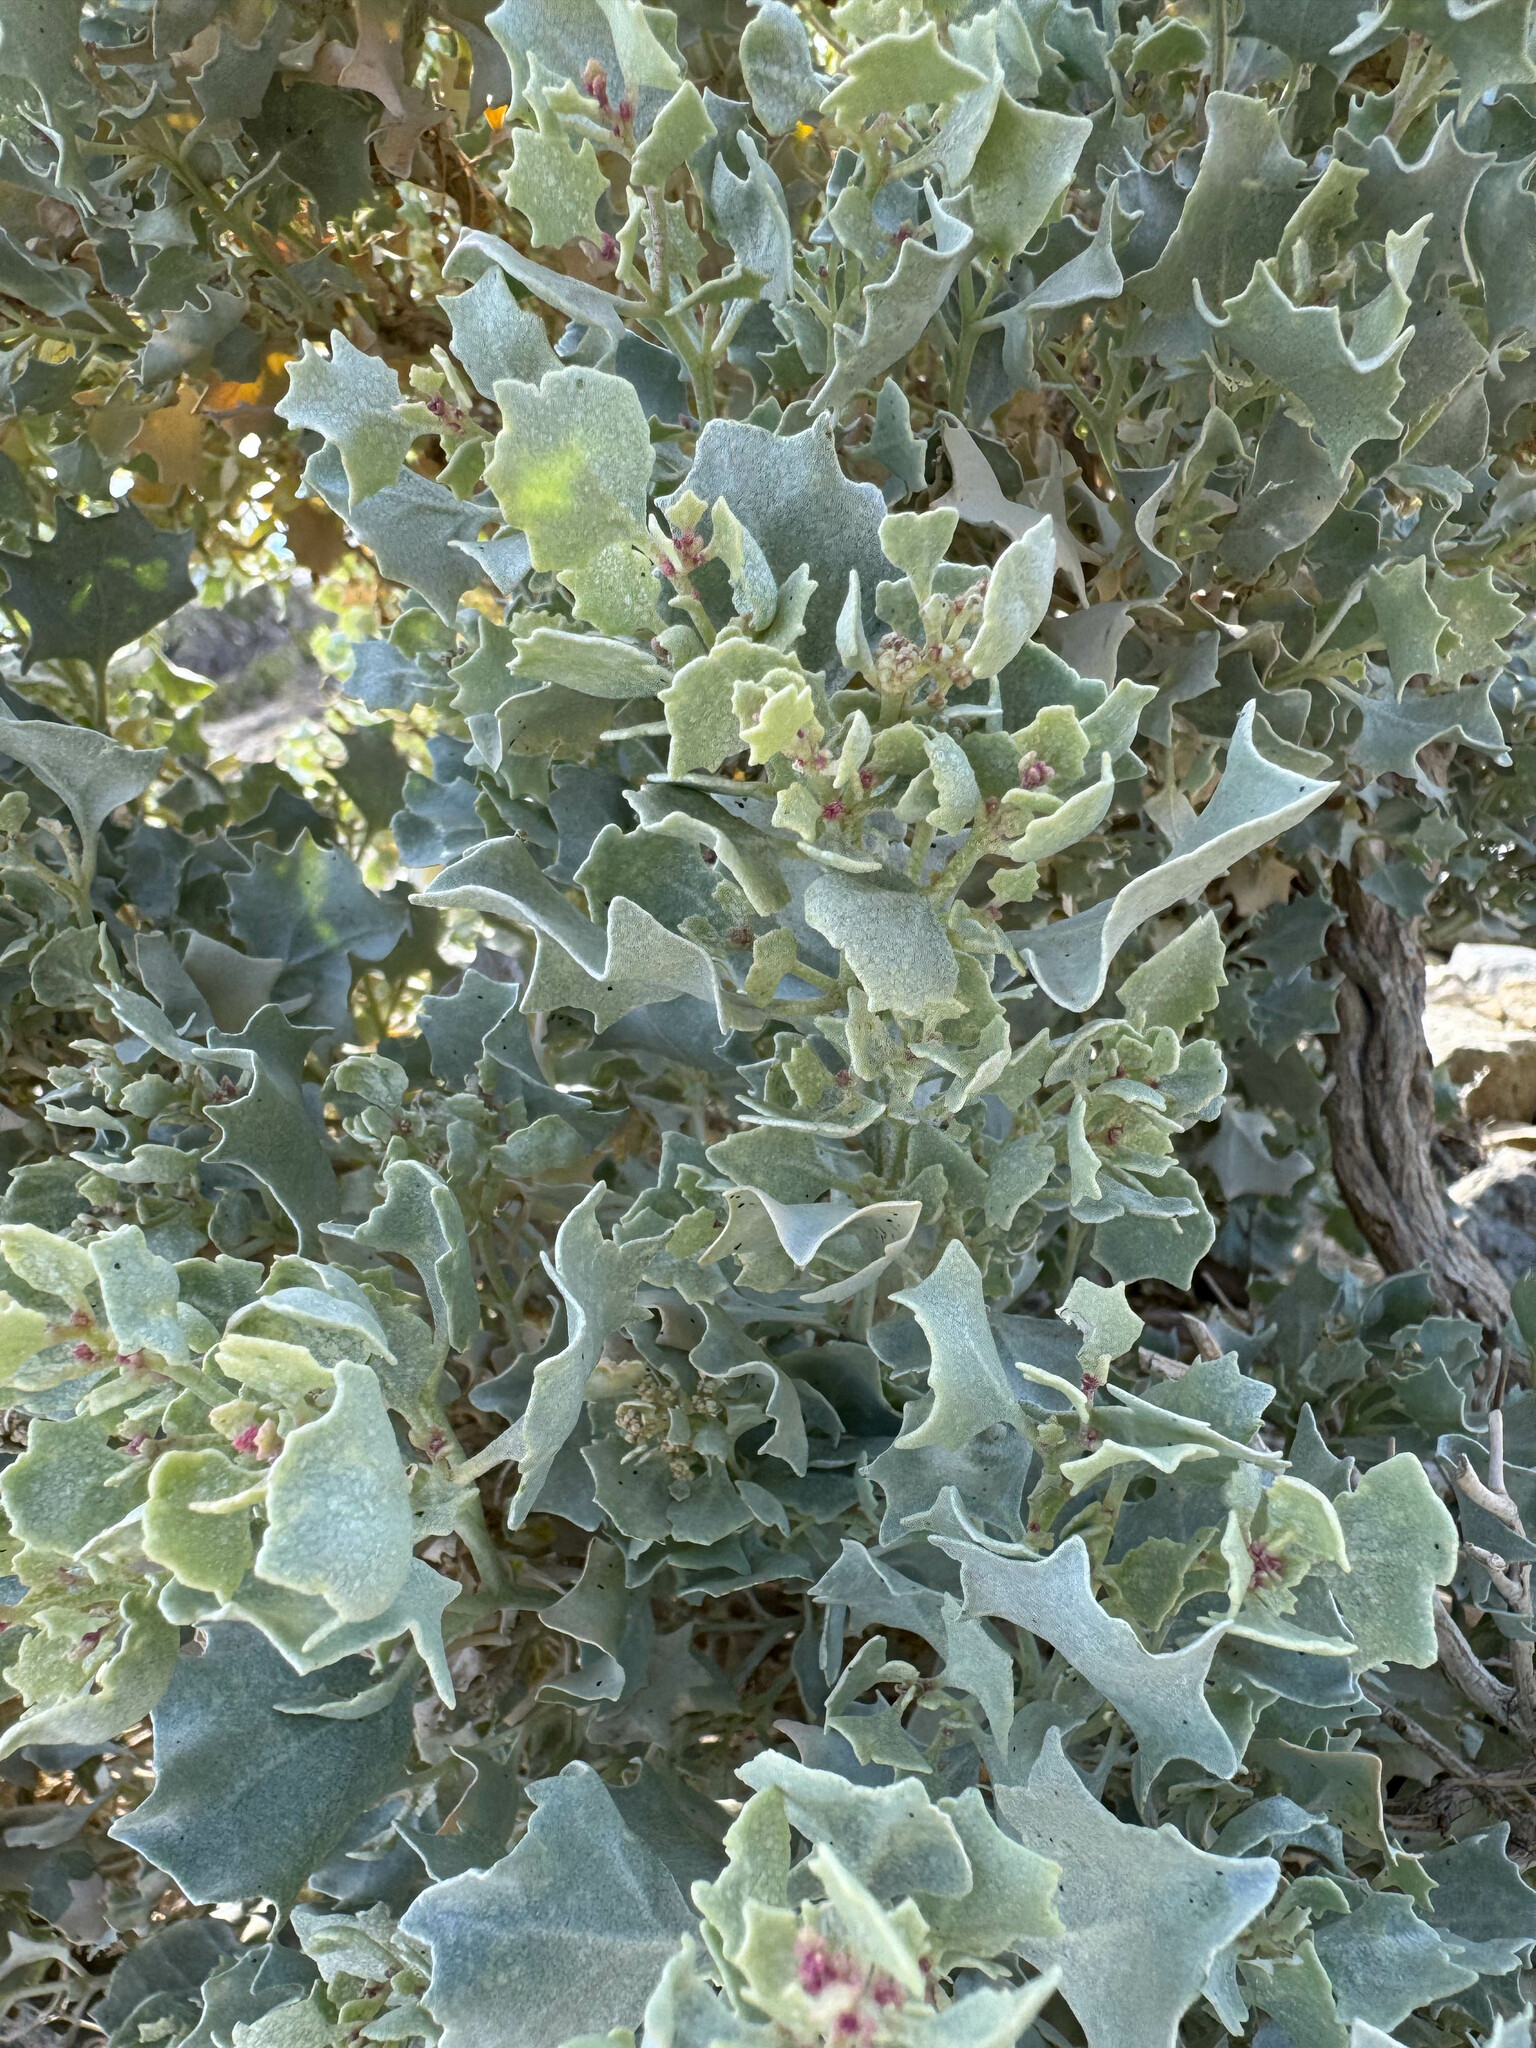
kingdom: Plantae
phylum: Tracheophyta
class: Magnoliopsida
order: Caryophyllales
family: Amaranthaceae
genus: Atriplex
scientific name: Atriplex hymenelytra
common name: Desert-holly
